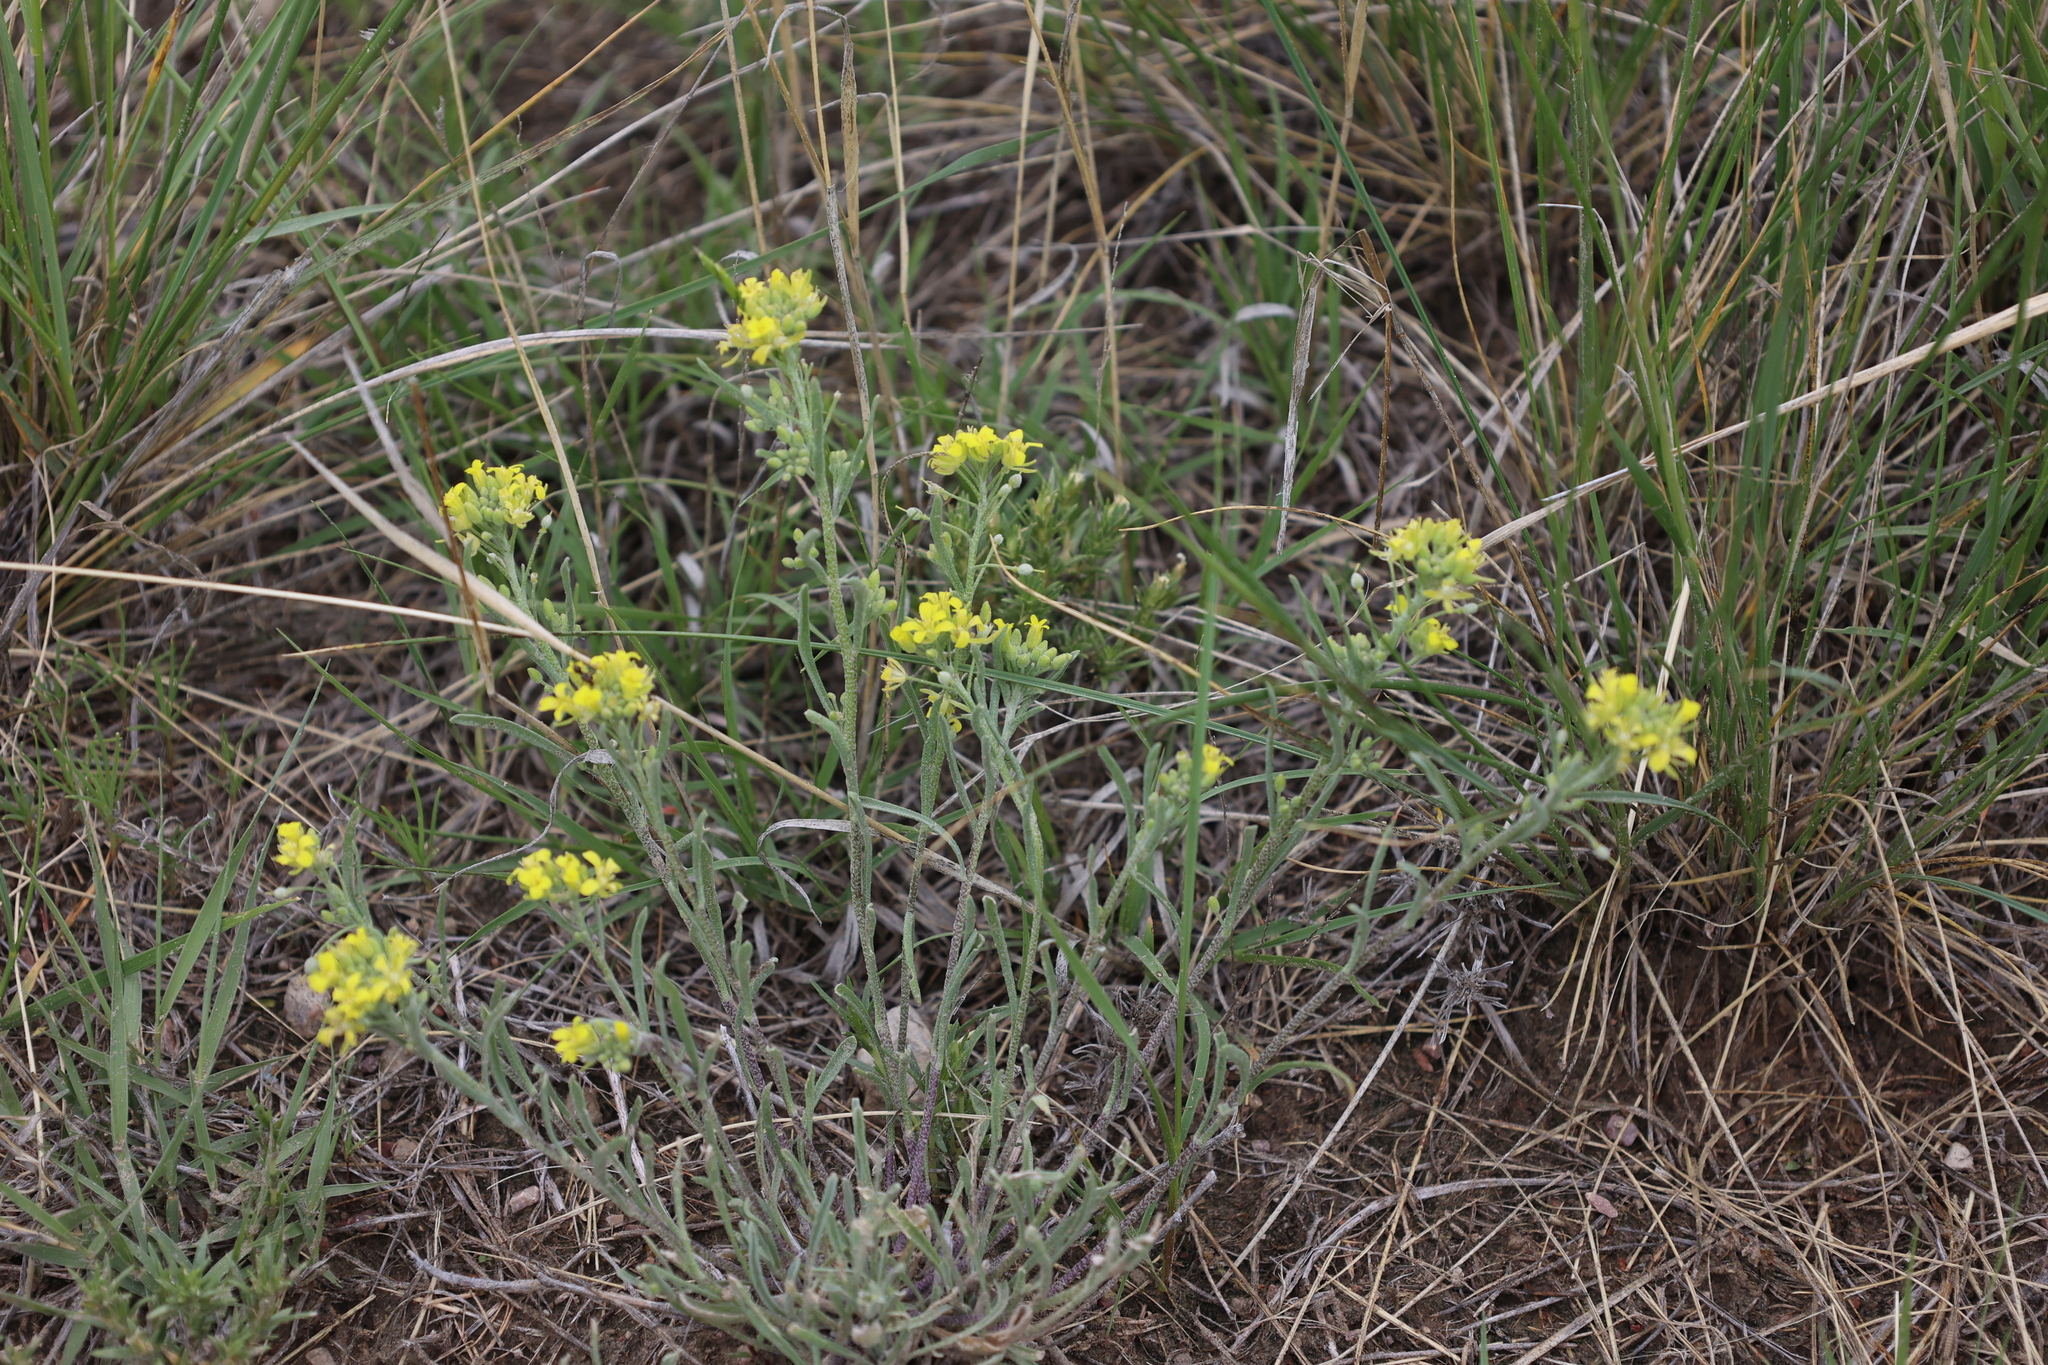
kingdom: Plantae
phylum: Tracheophyta
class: Magnoliopsida
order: Brassicales
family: Brassicaceae
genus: Physaria
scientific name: Physaria arenosa
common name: Great plains bladderpod
